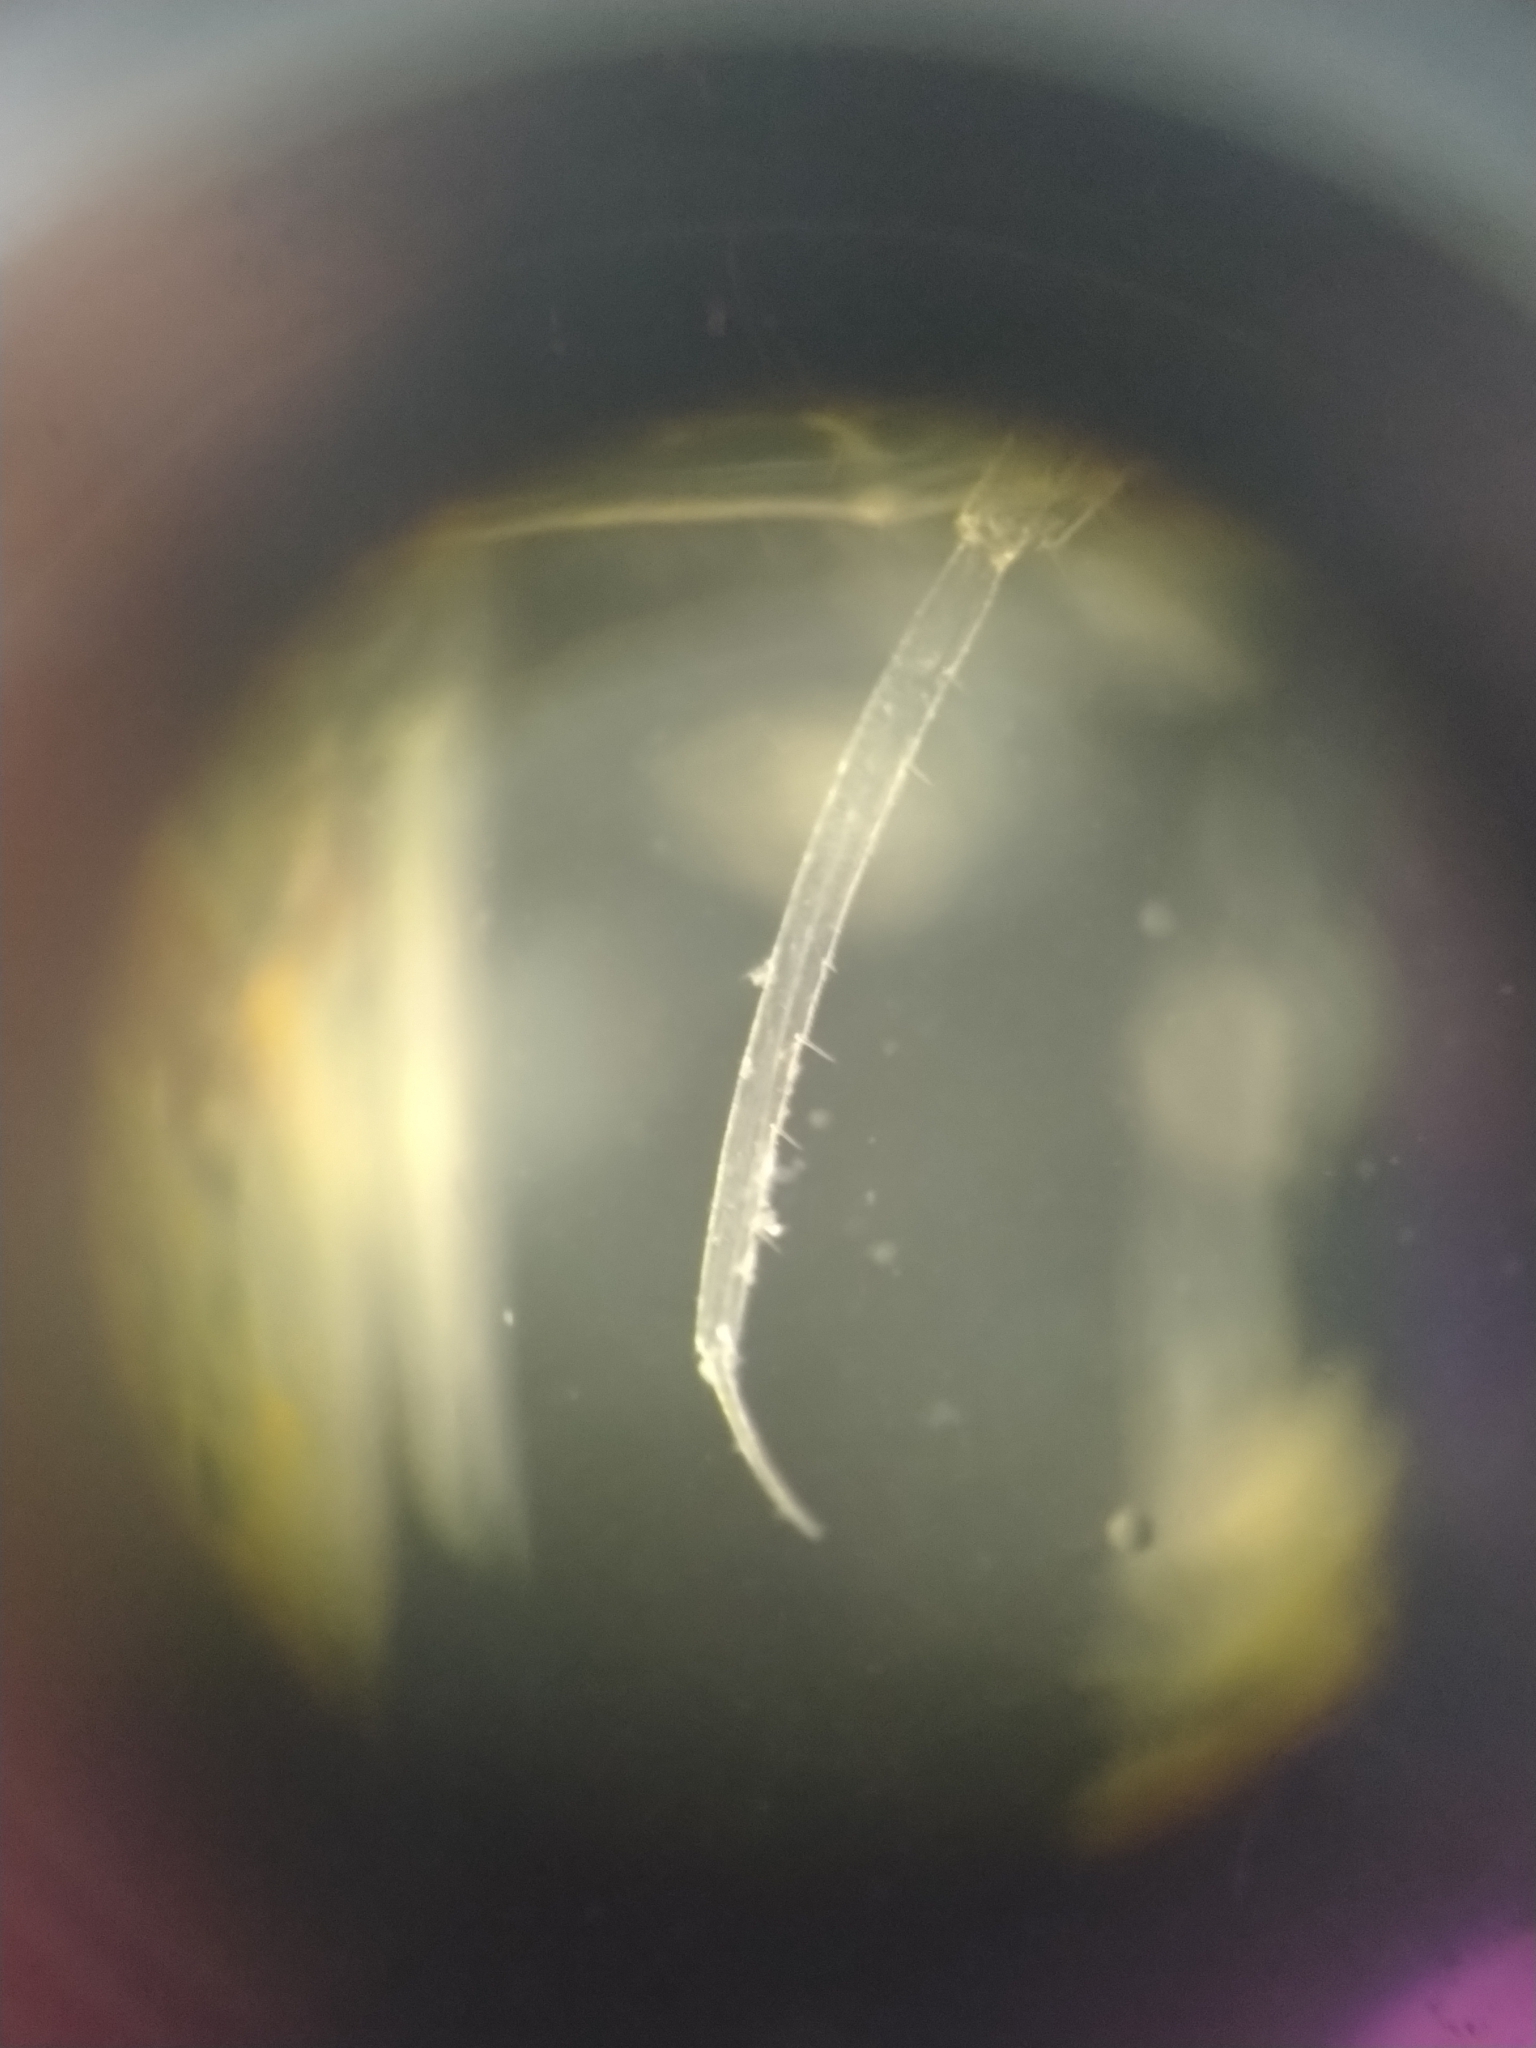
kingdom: Animalia
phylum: Arthropoda
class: Malacostraca
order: Amphipoda
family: Hyperiidae
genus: Themisto
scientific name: Themisto abyssorum
